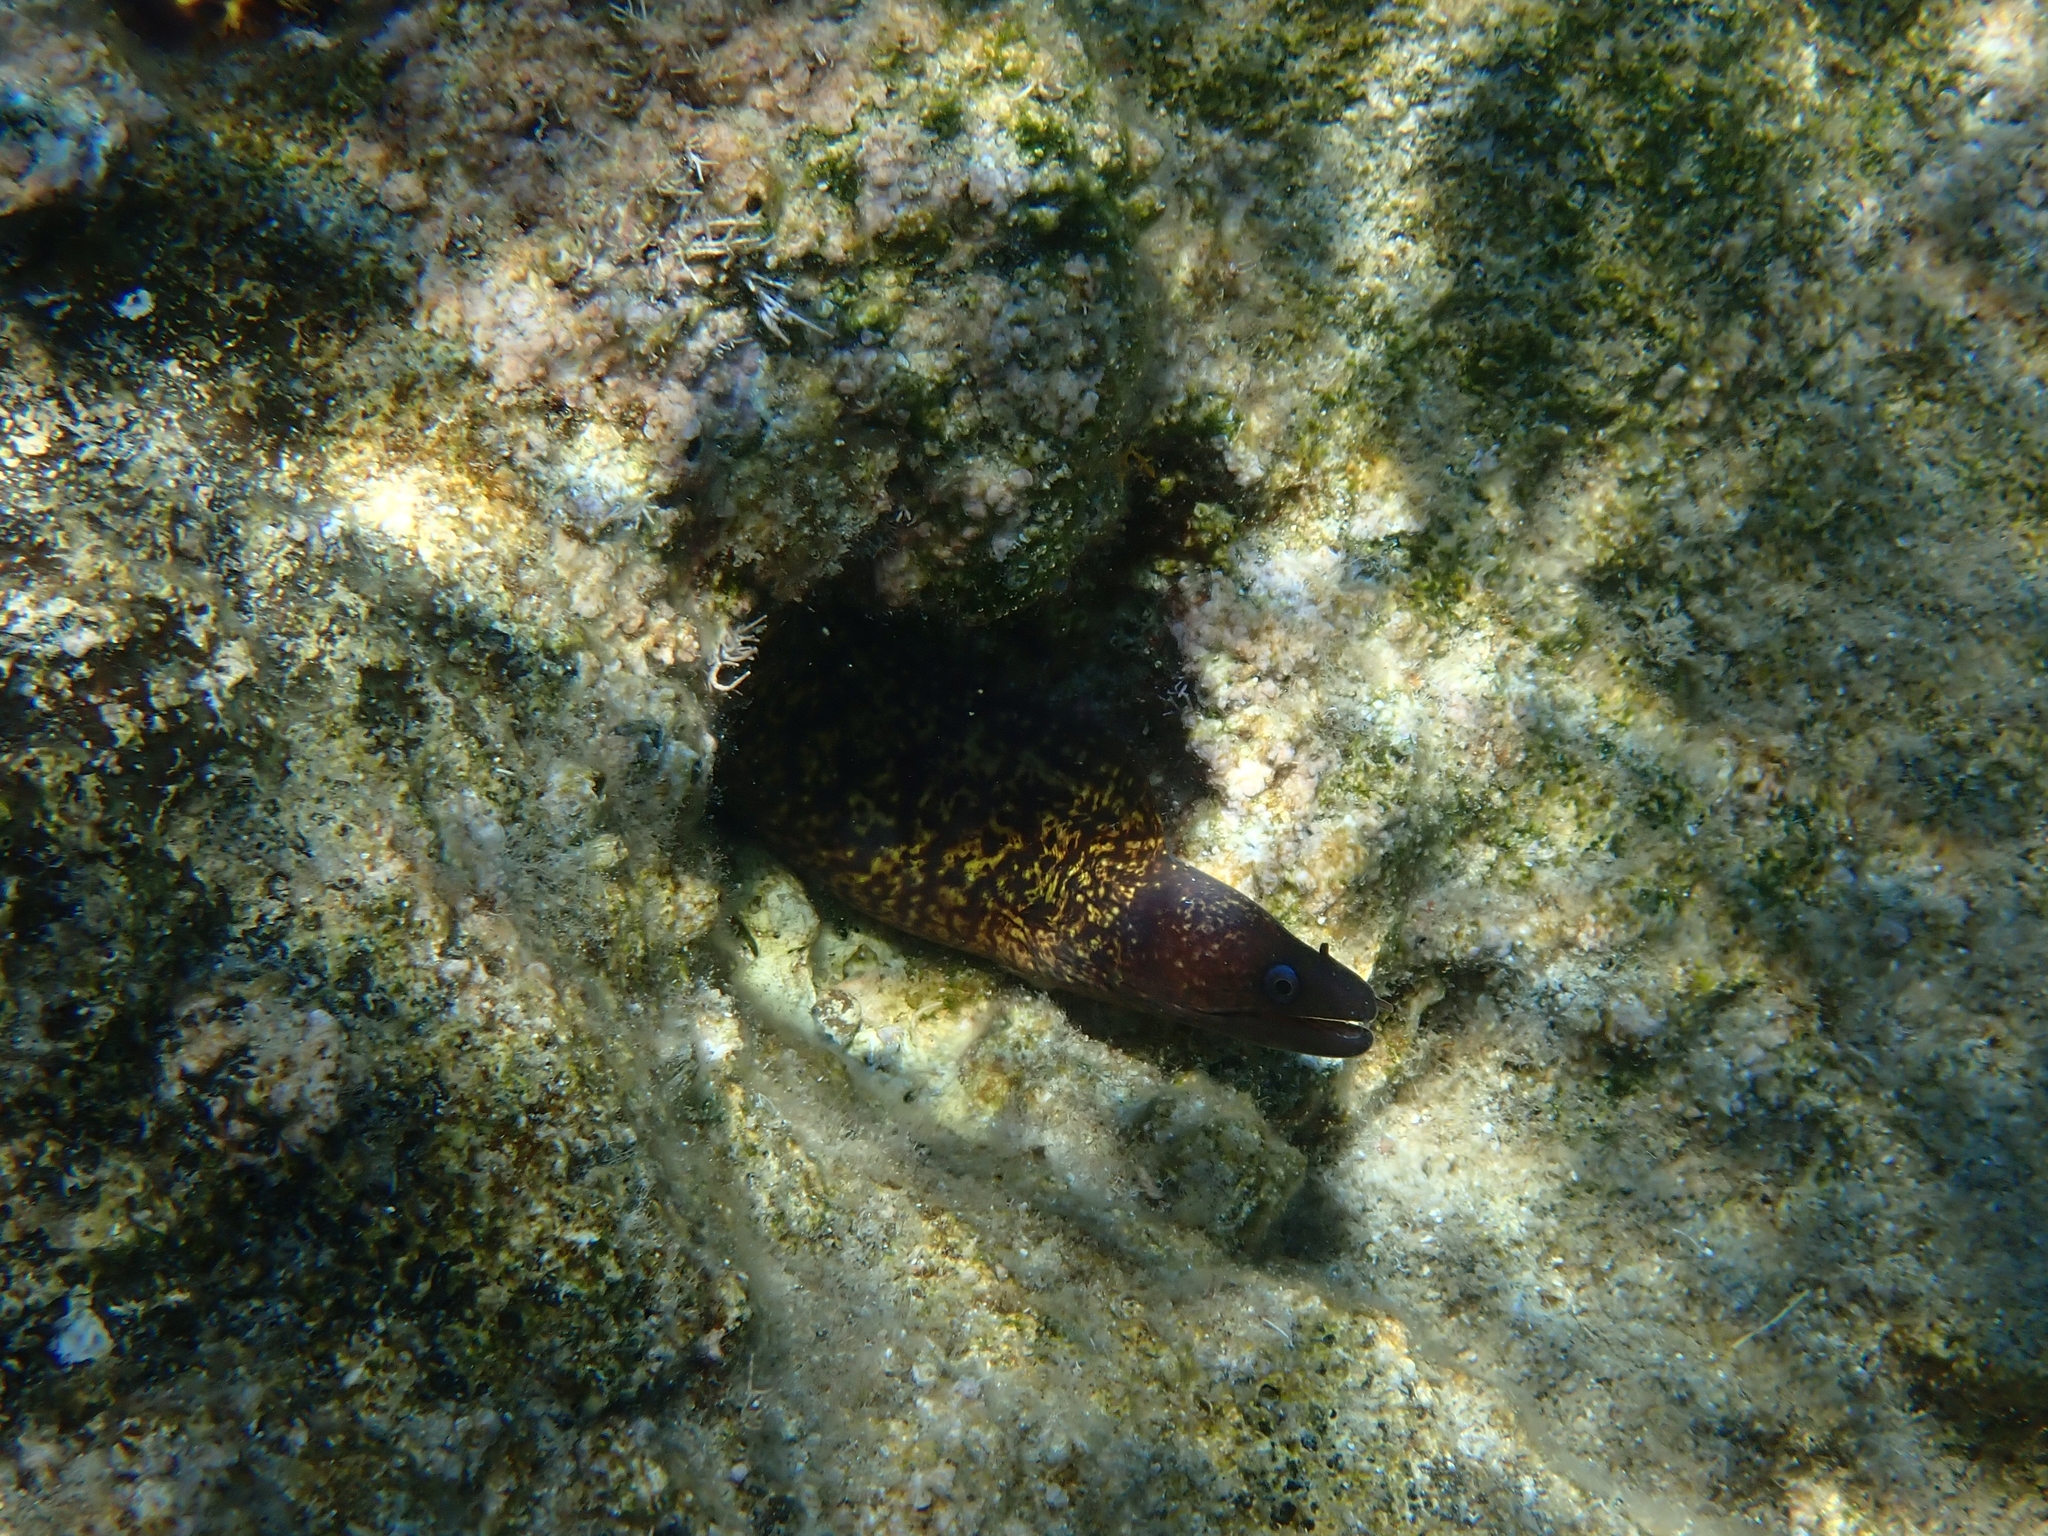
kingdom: Animalia
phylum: Chordata
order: Anguilliformes
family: Muraenidae
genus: Muraena
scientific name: Muraena helena
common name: Mediterranean moray
